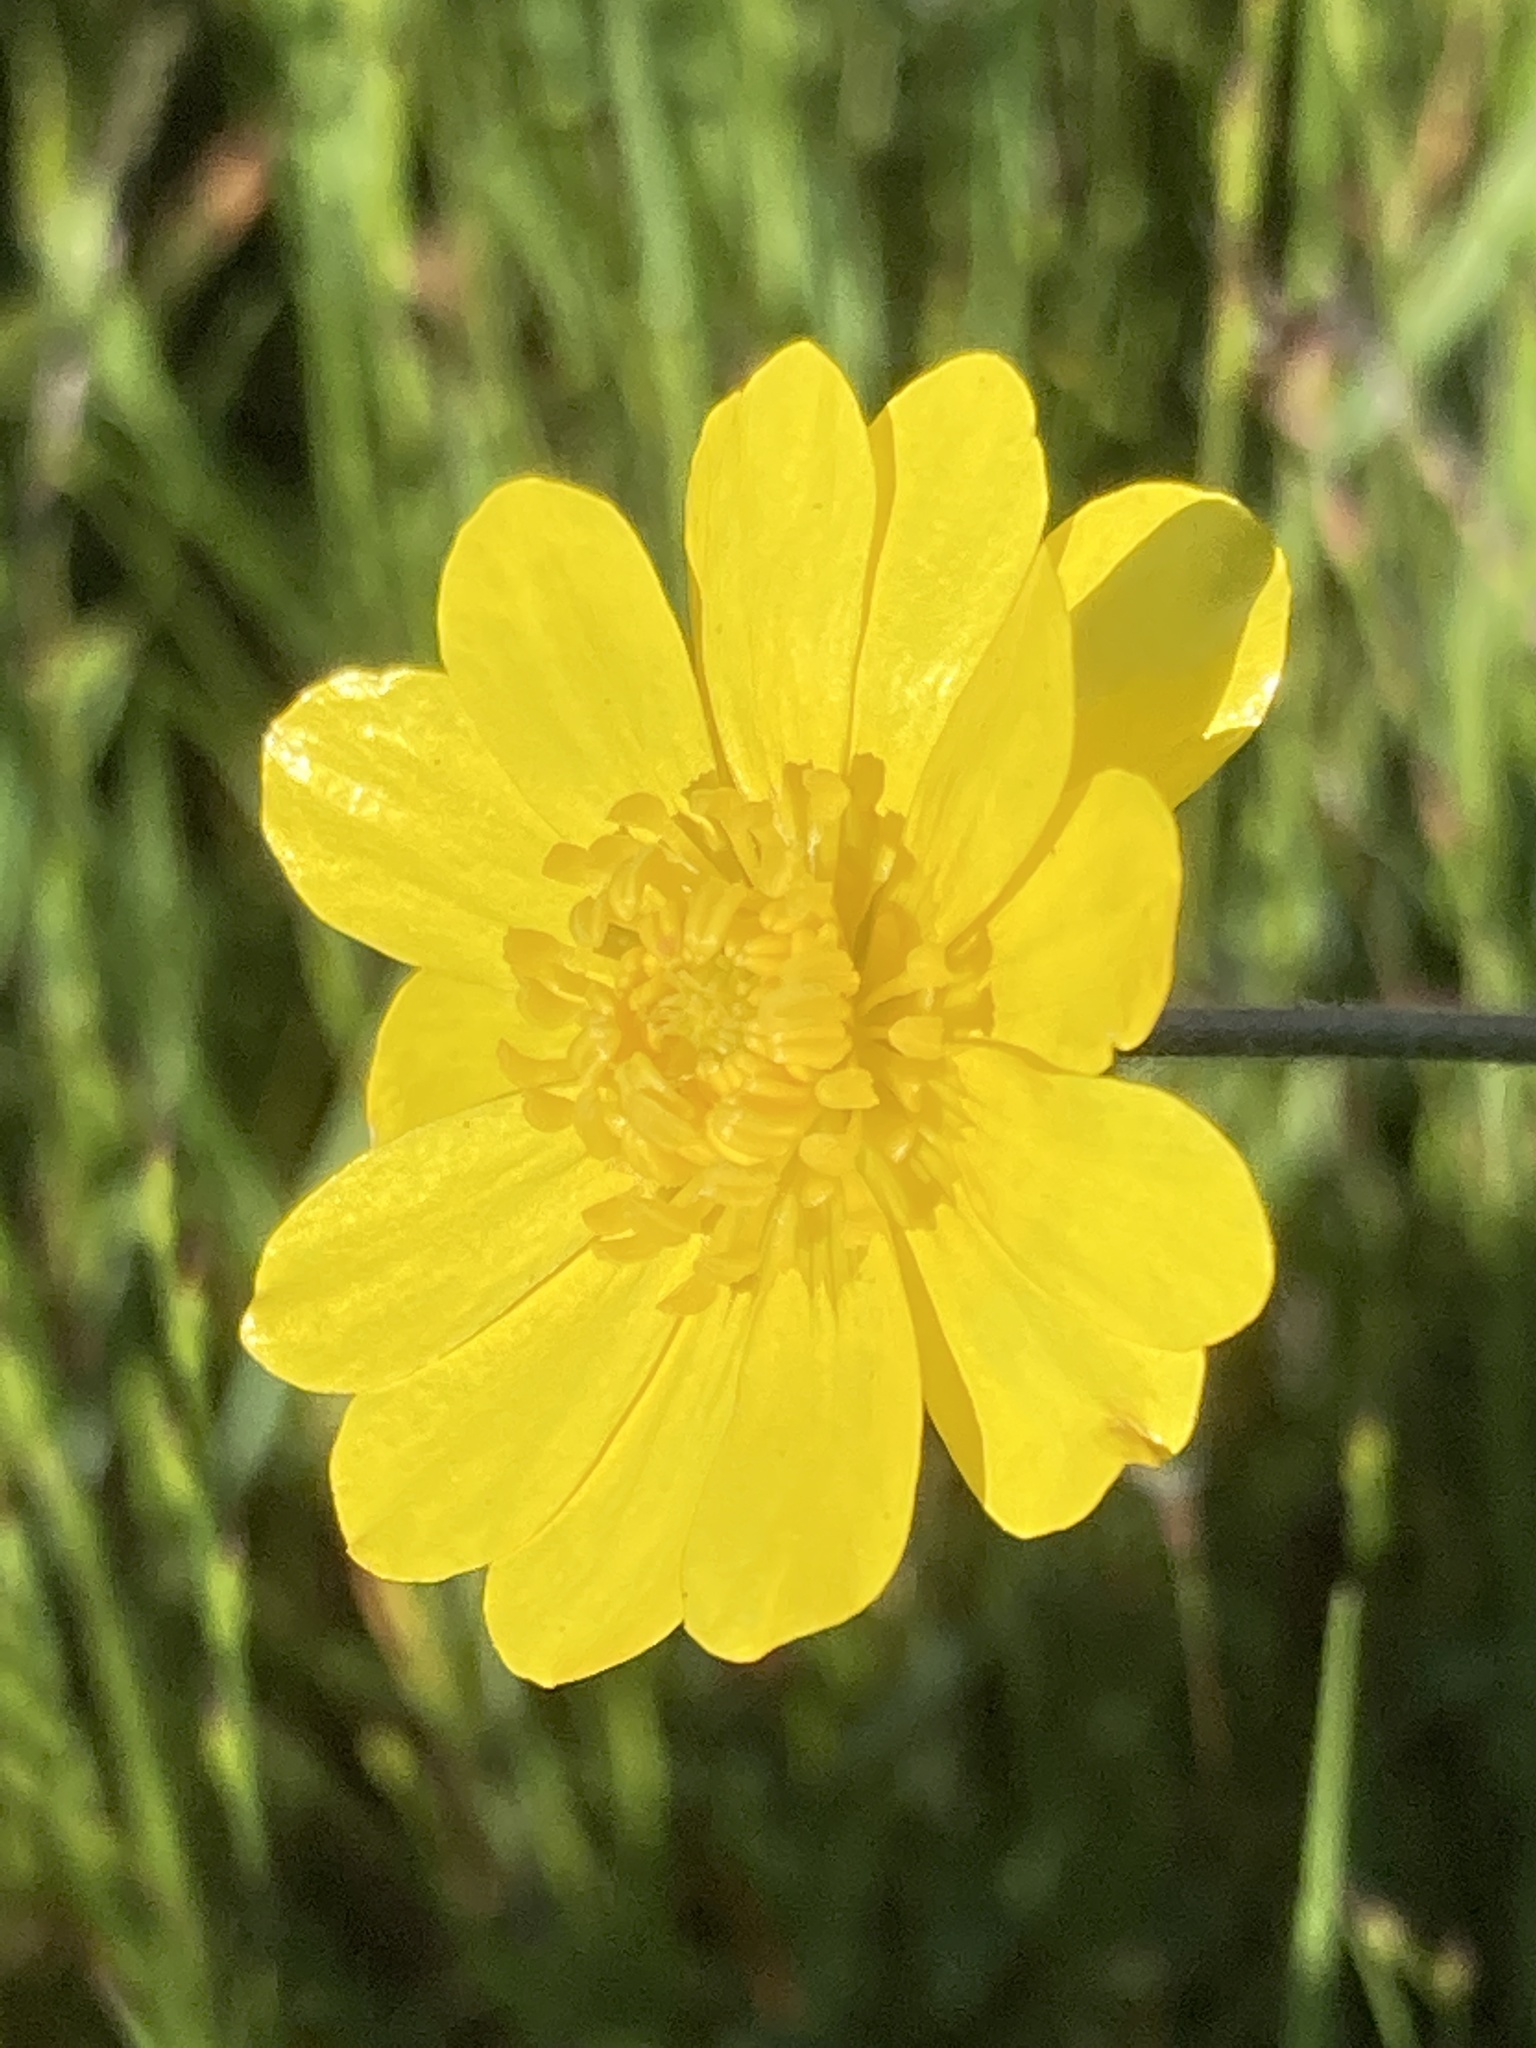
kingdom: Plantae
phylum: Tracheophyta
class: Magnoliopsida
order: Ranunculales
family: Ranunculaceae
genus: Ranunculus
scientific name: Ranunculus californicus
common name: California buttercup
